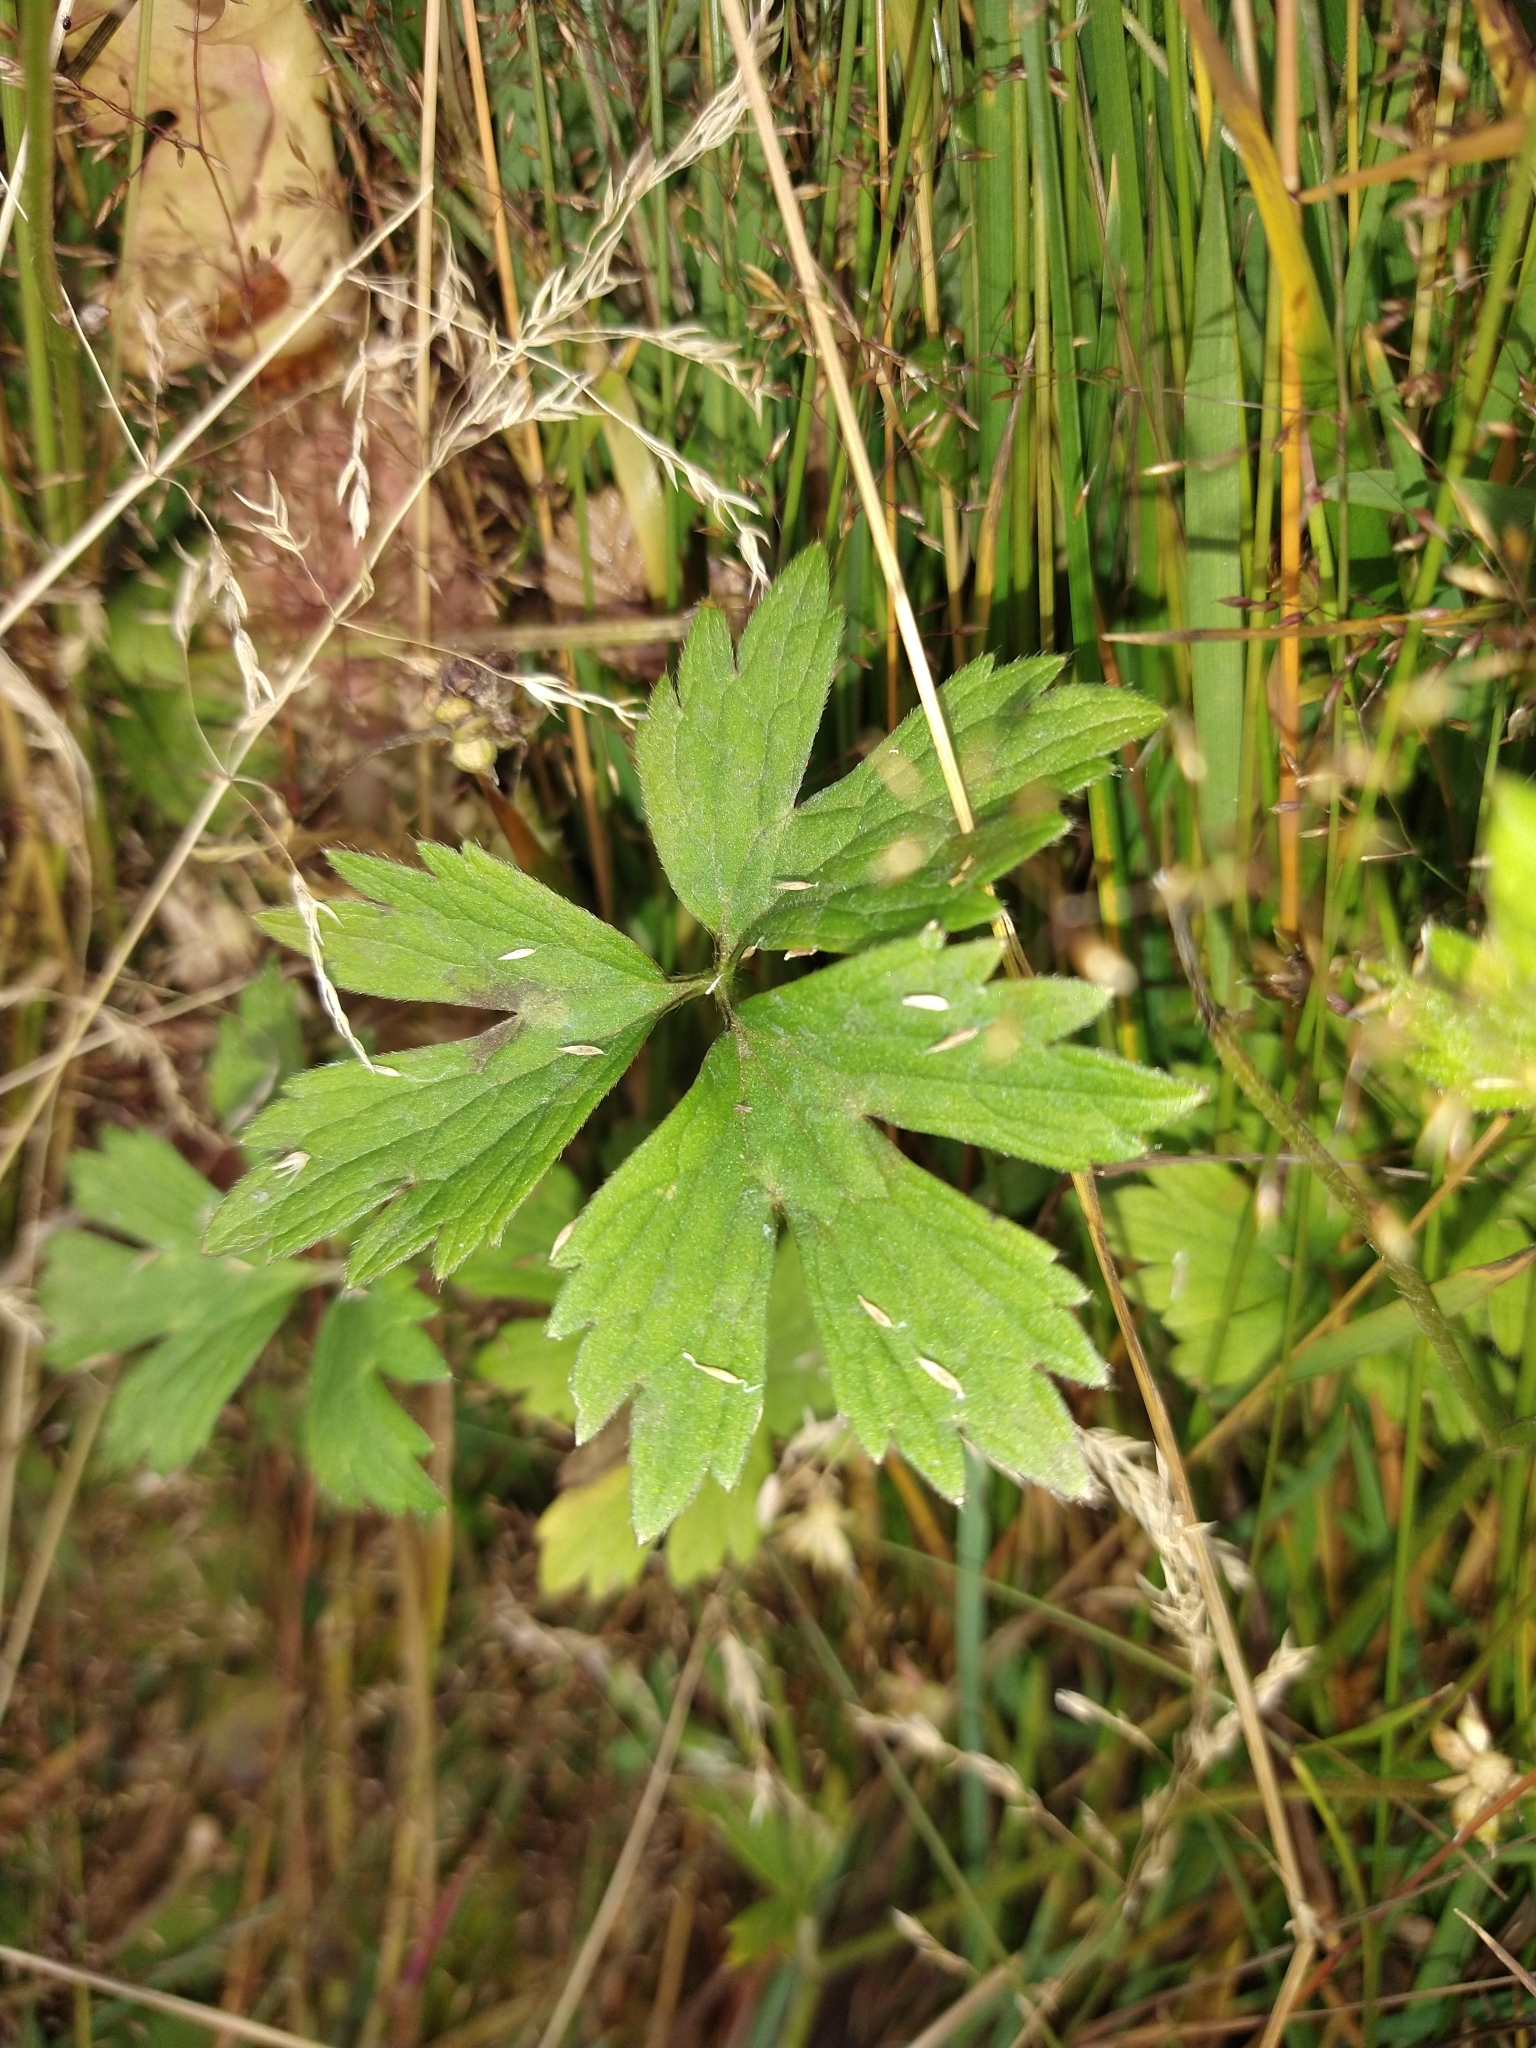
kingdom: Plantae
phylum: Tracheophyta
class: Magnoliopsida
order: Ranunculales
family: Ranunculaceae
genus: Ranunculus
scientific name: Ranunculus repens
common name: Creeping buttercup
